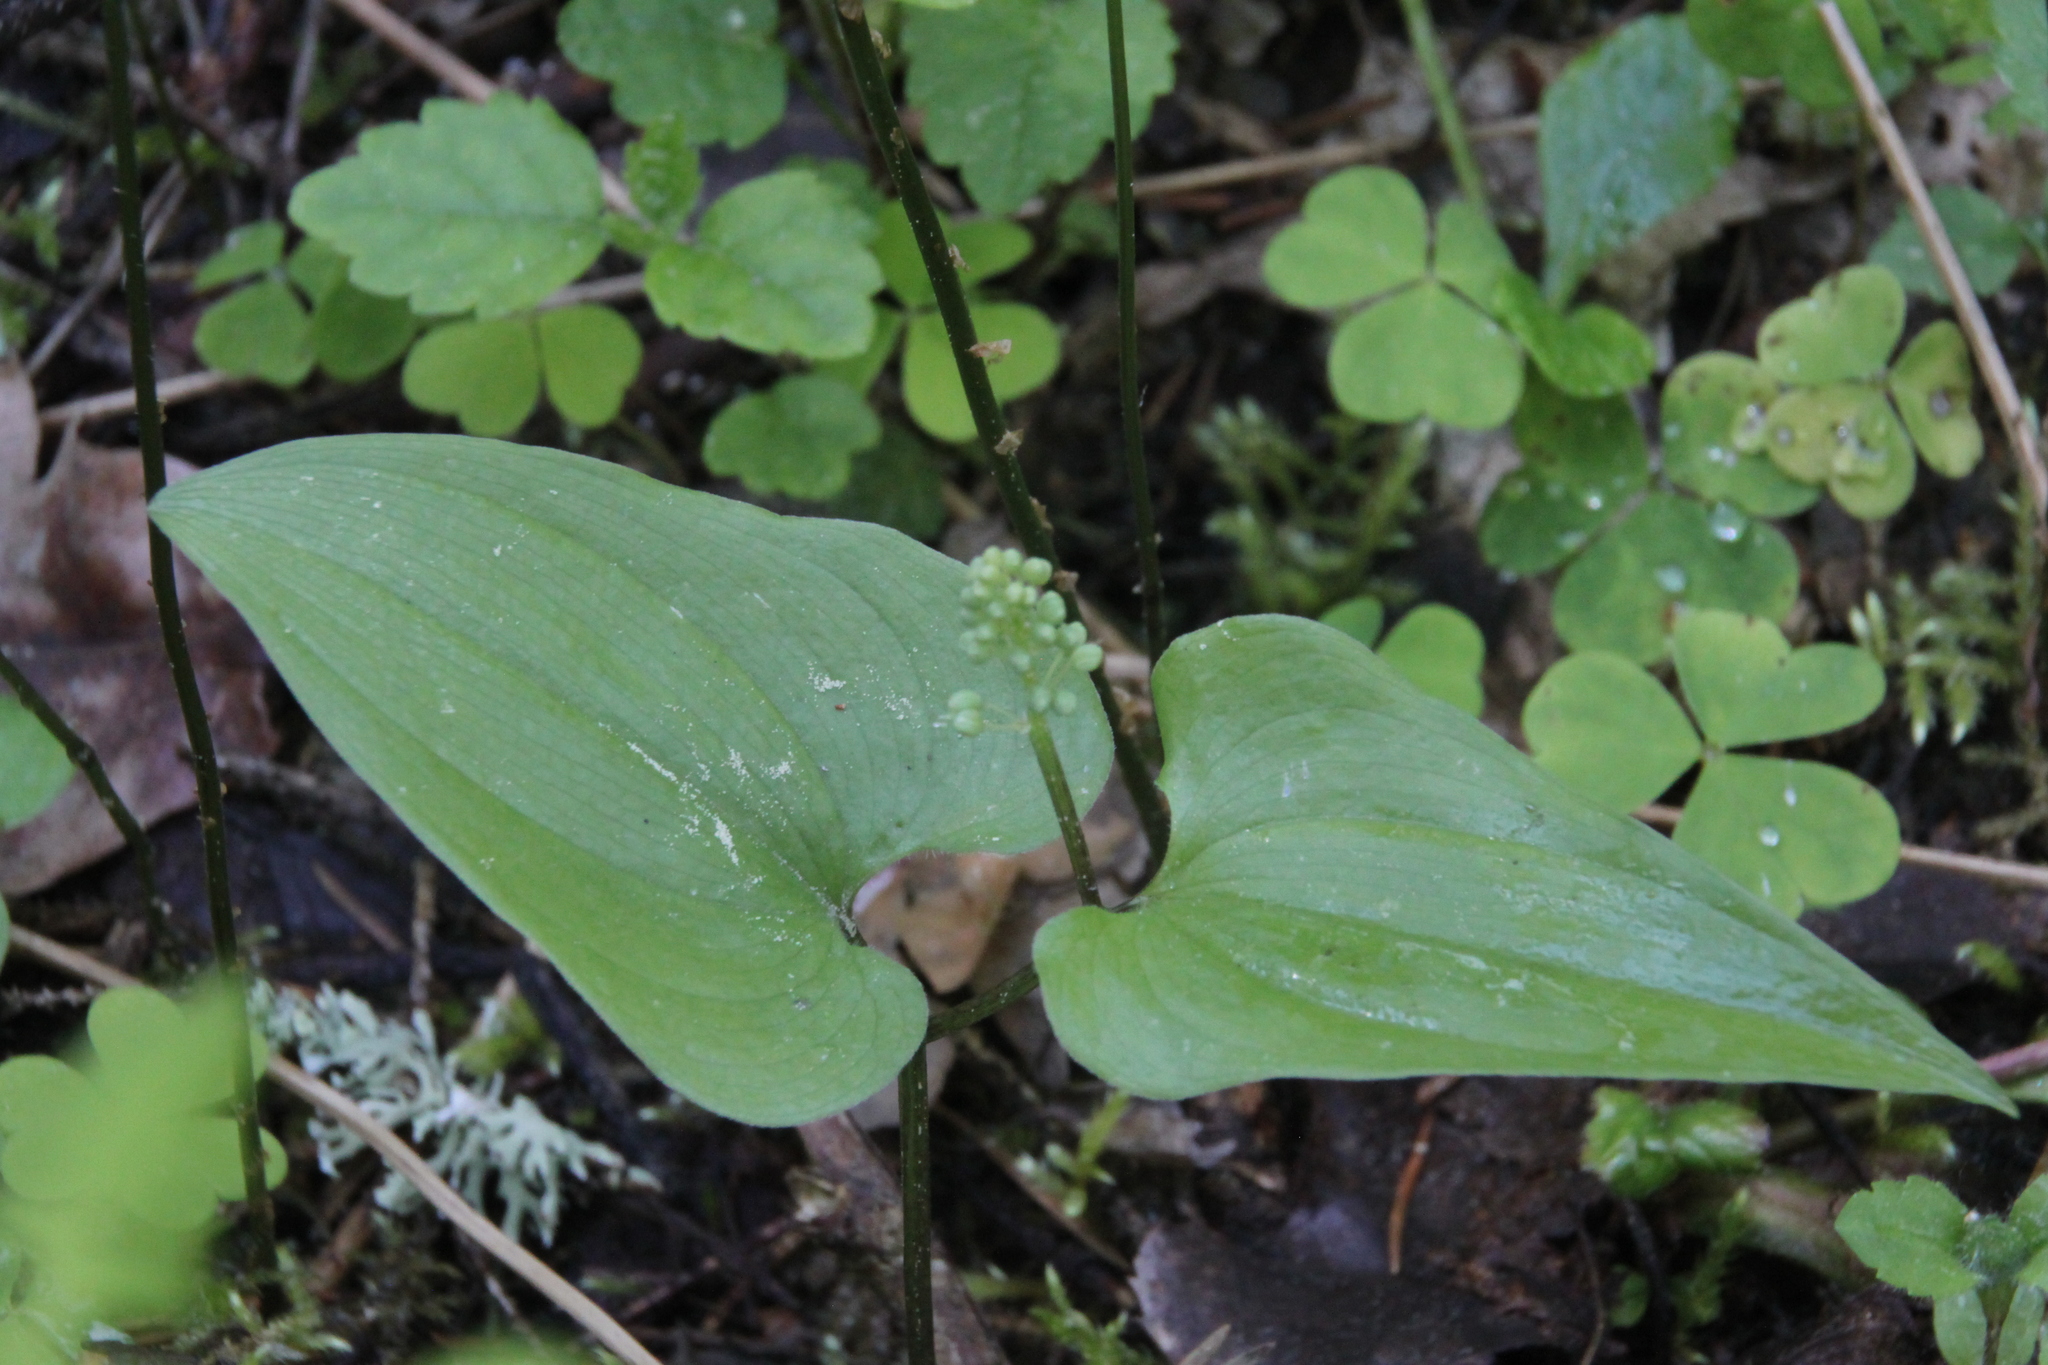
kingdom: Plantae
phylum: Tracheophyta
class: Liliopsida
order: Asparagales
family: Asparagaceae
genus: Maianthemum
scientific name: Maianthemum bifolium
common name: May lily
